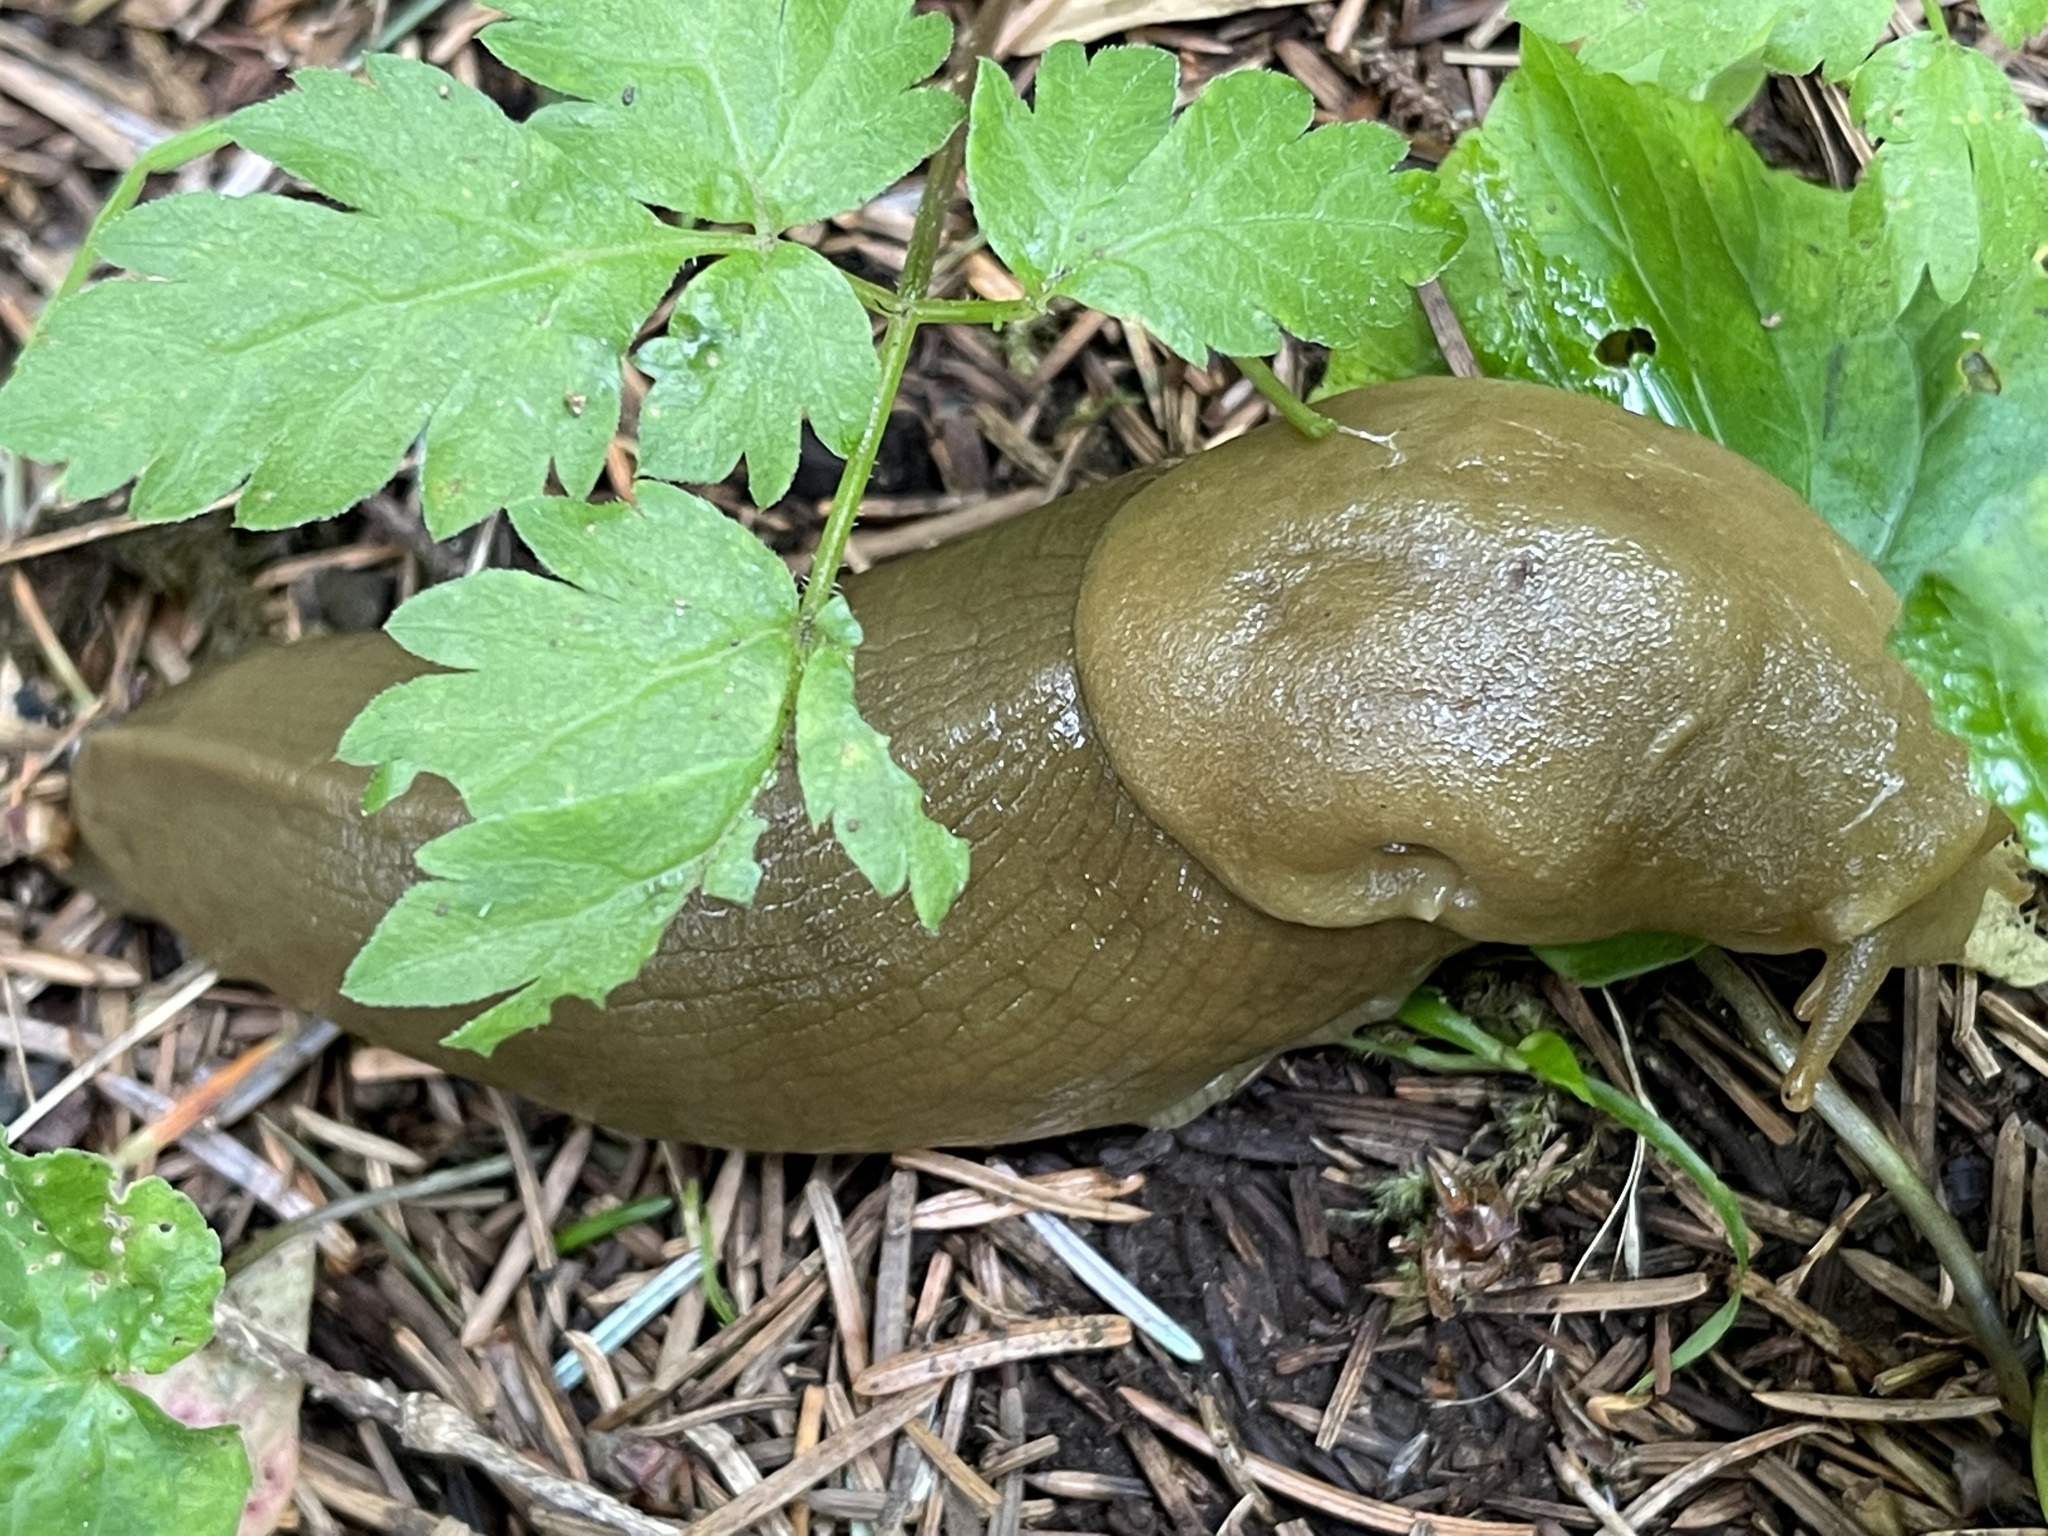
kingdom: Animalia
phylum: Mollusca
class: Gastropoda
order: Stylommatophora
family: Ariolimacidae
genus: Ariolimax
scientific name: Ariolimax columbianus
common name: Pacific banana slug
